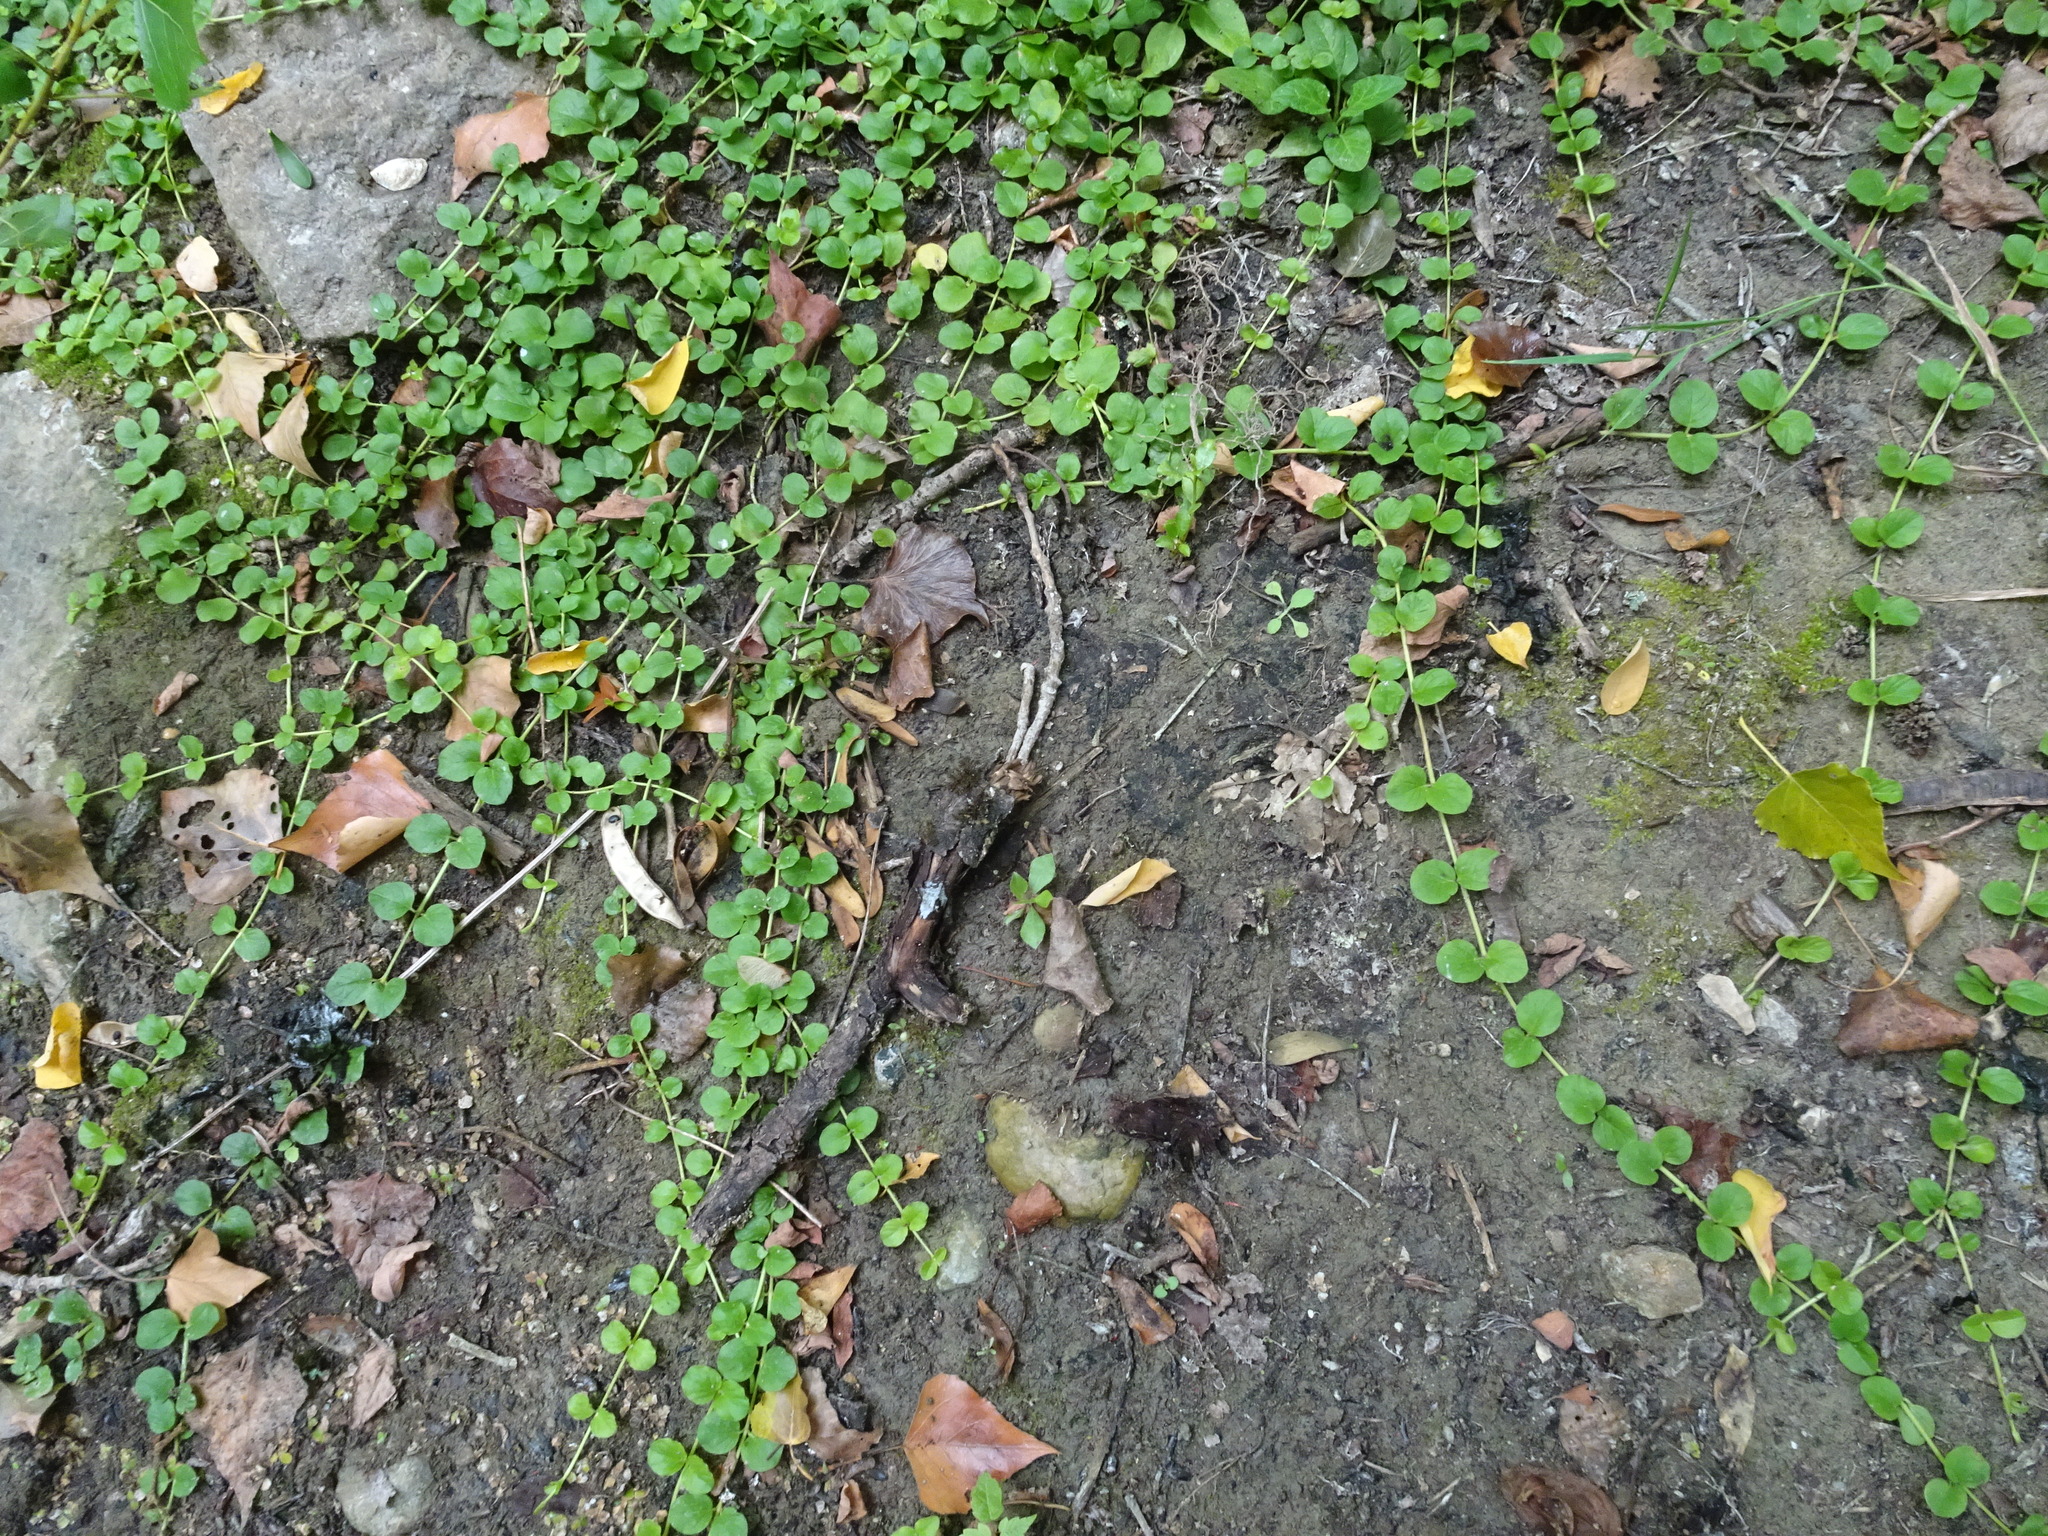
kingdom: Plantae
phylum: Tracheophyta
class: Magnoliopsida
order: Ericales
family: Primulaceae
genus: Lysimachia
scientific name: Lysimachia nummularia
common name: Moneywort
